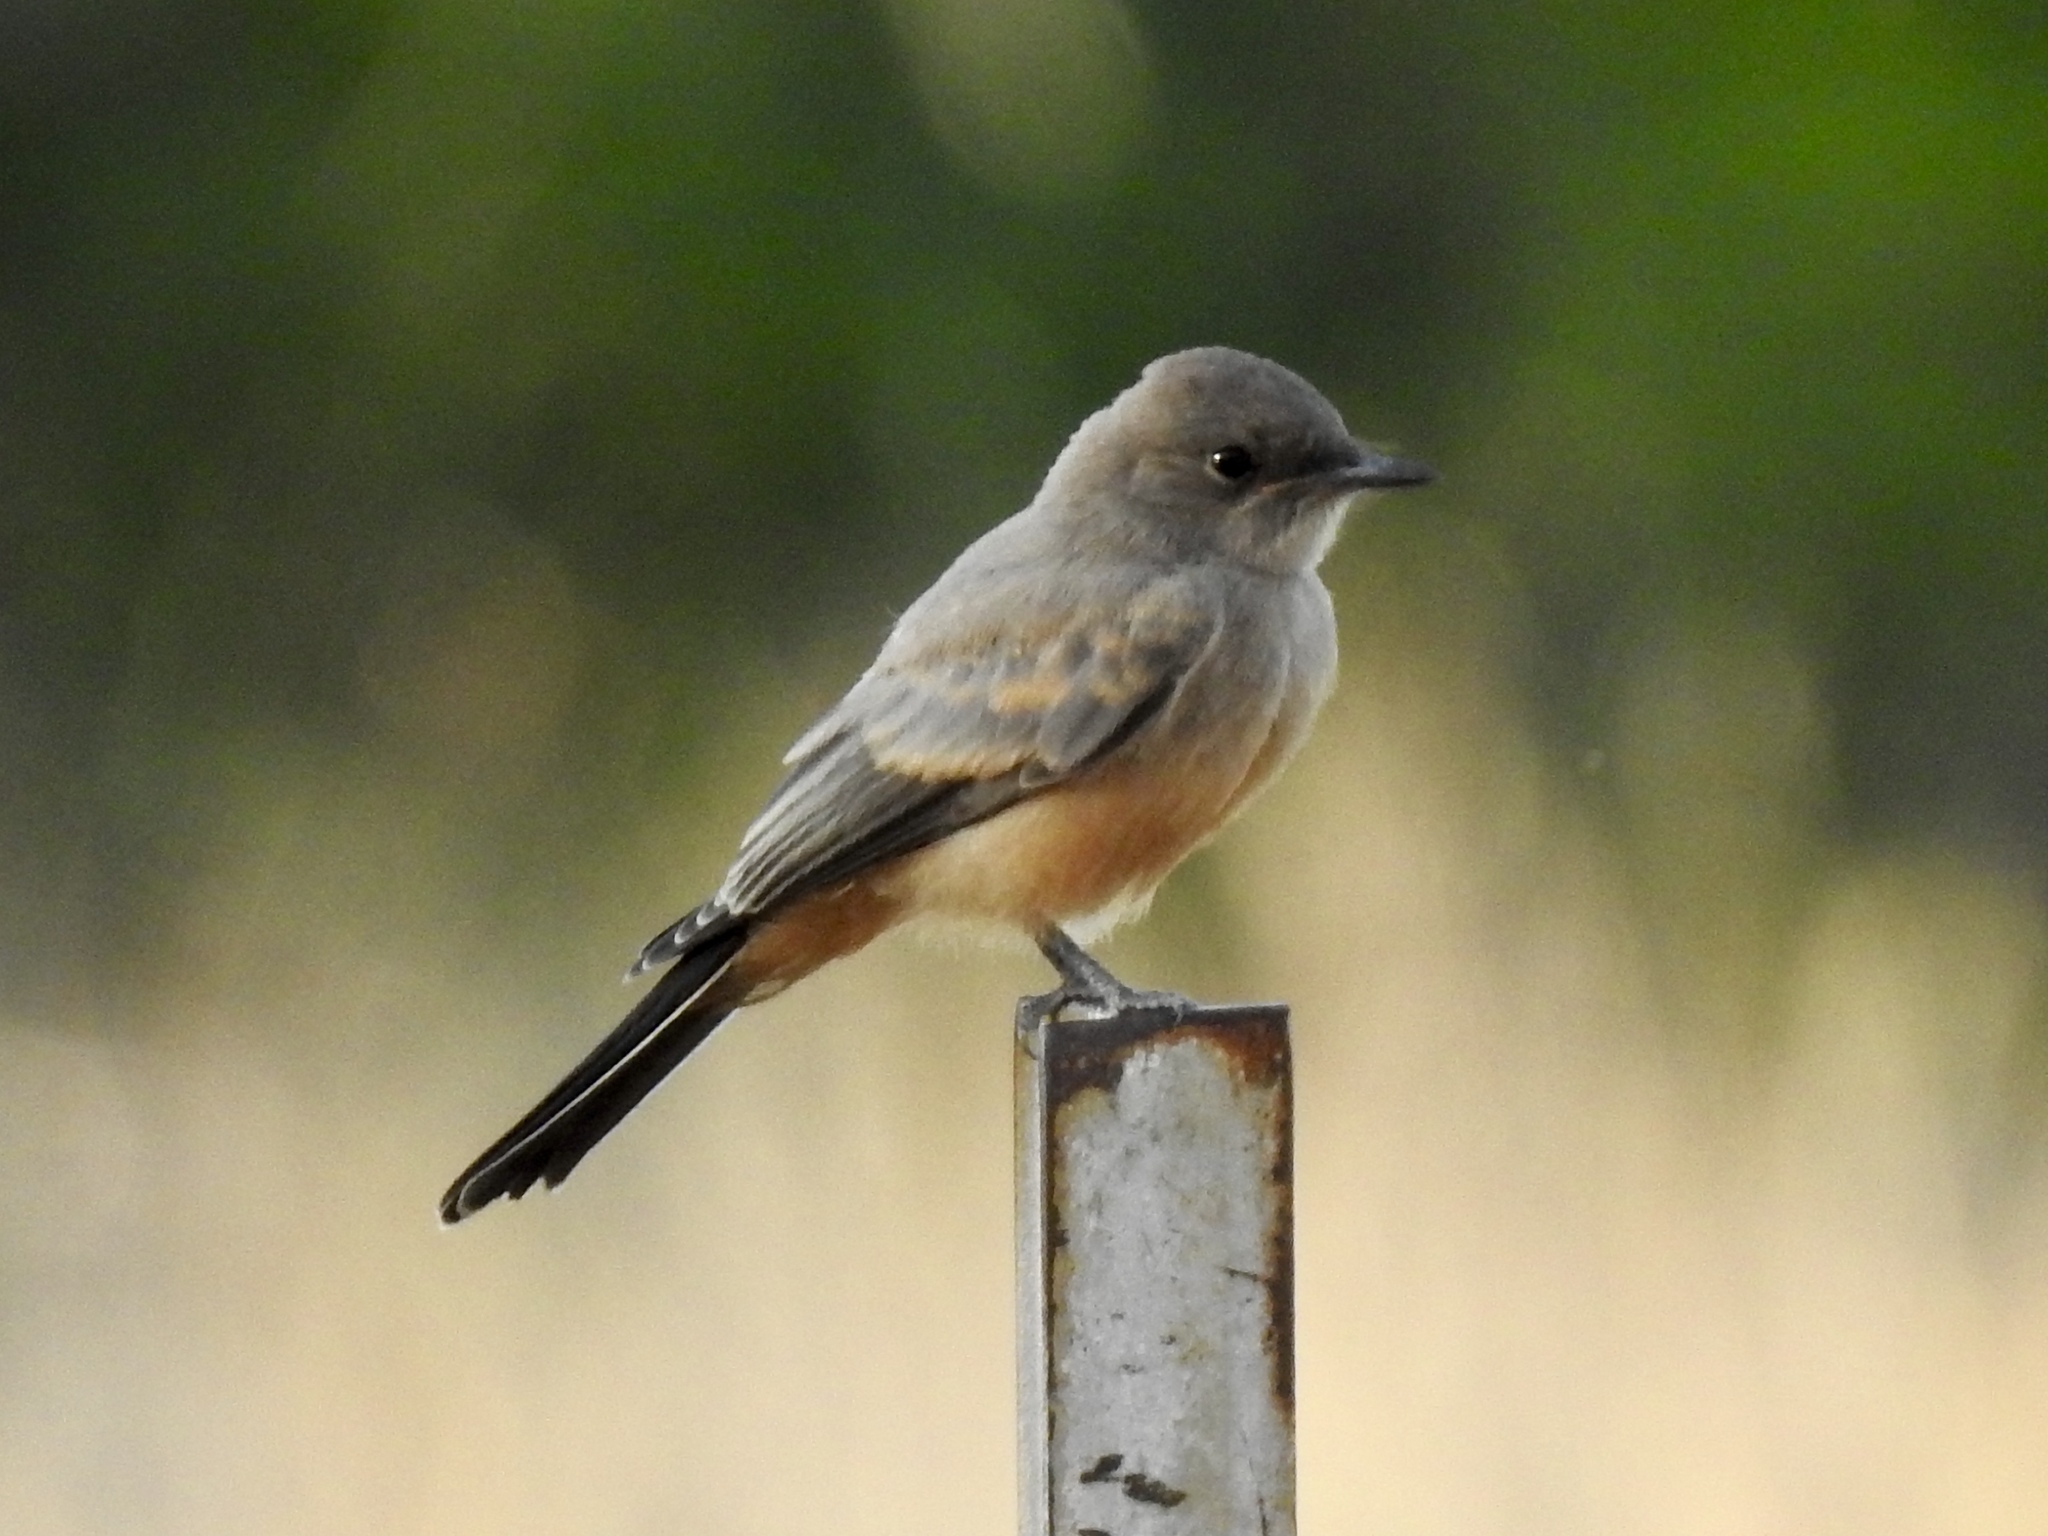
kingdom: Animalia
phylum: Chordata
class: Aves
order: Passeriformes
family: Tyrannidae
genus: Sayornis
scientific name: Sayornis saya
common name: Say's phoebe
